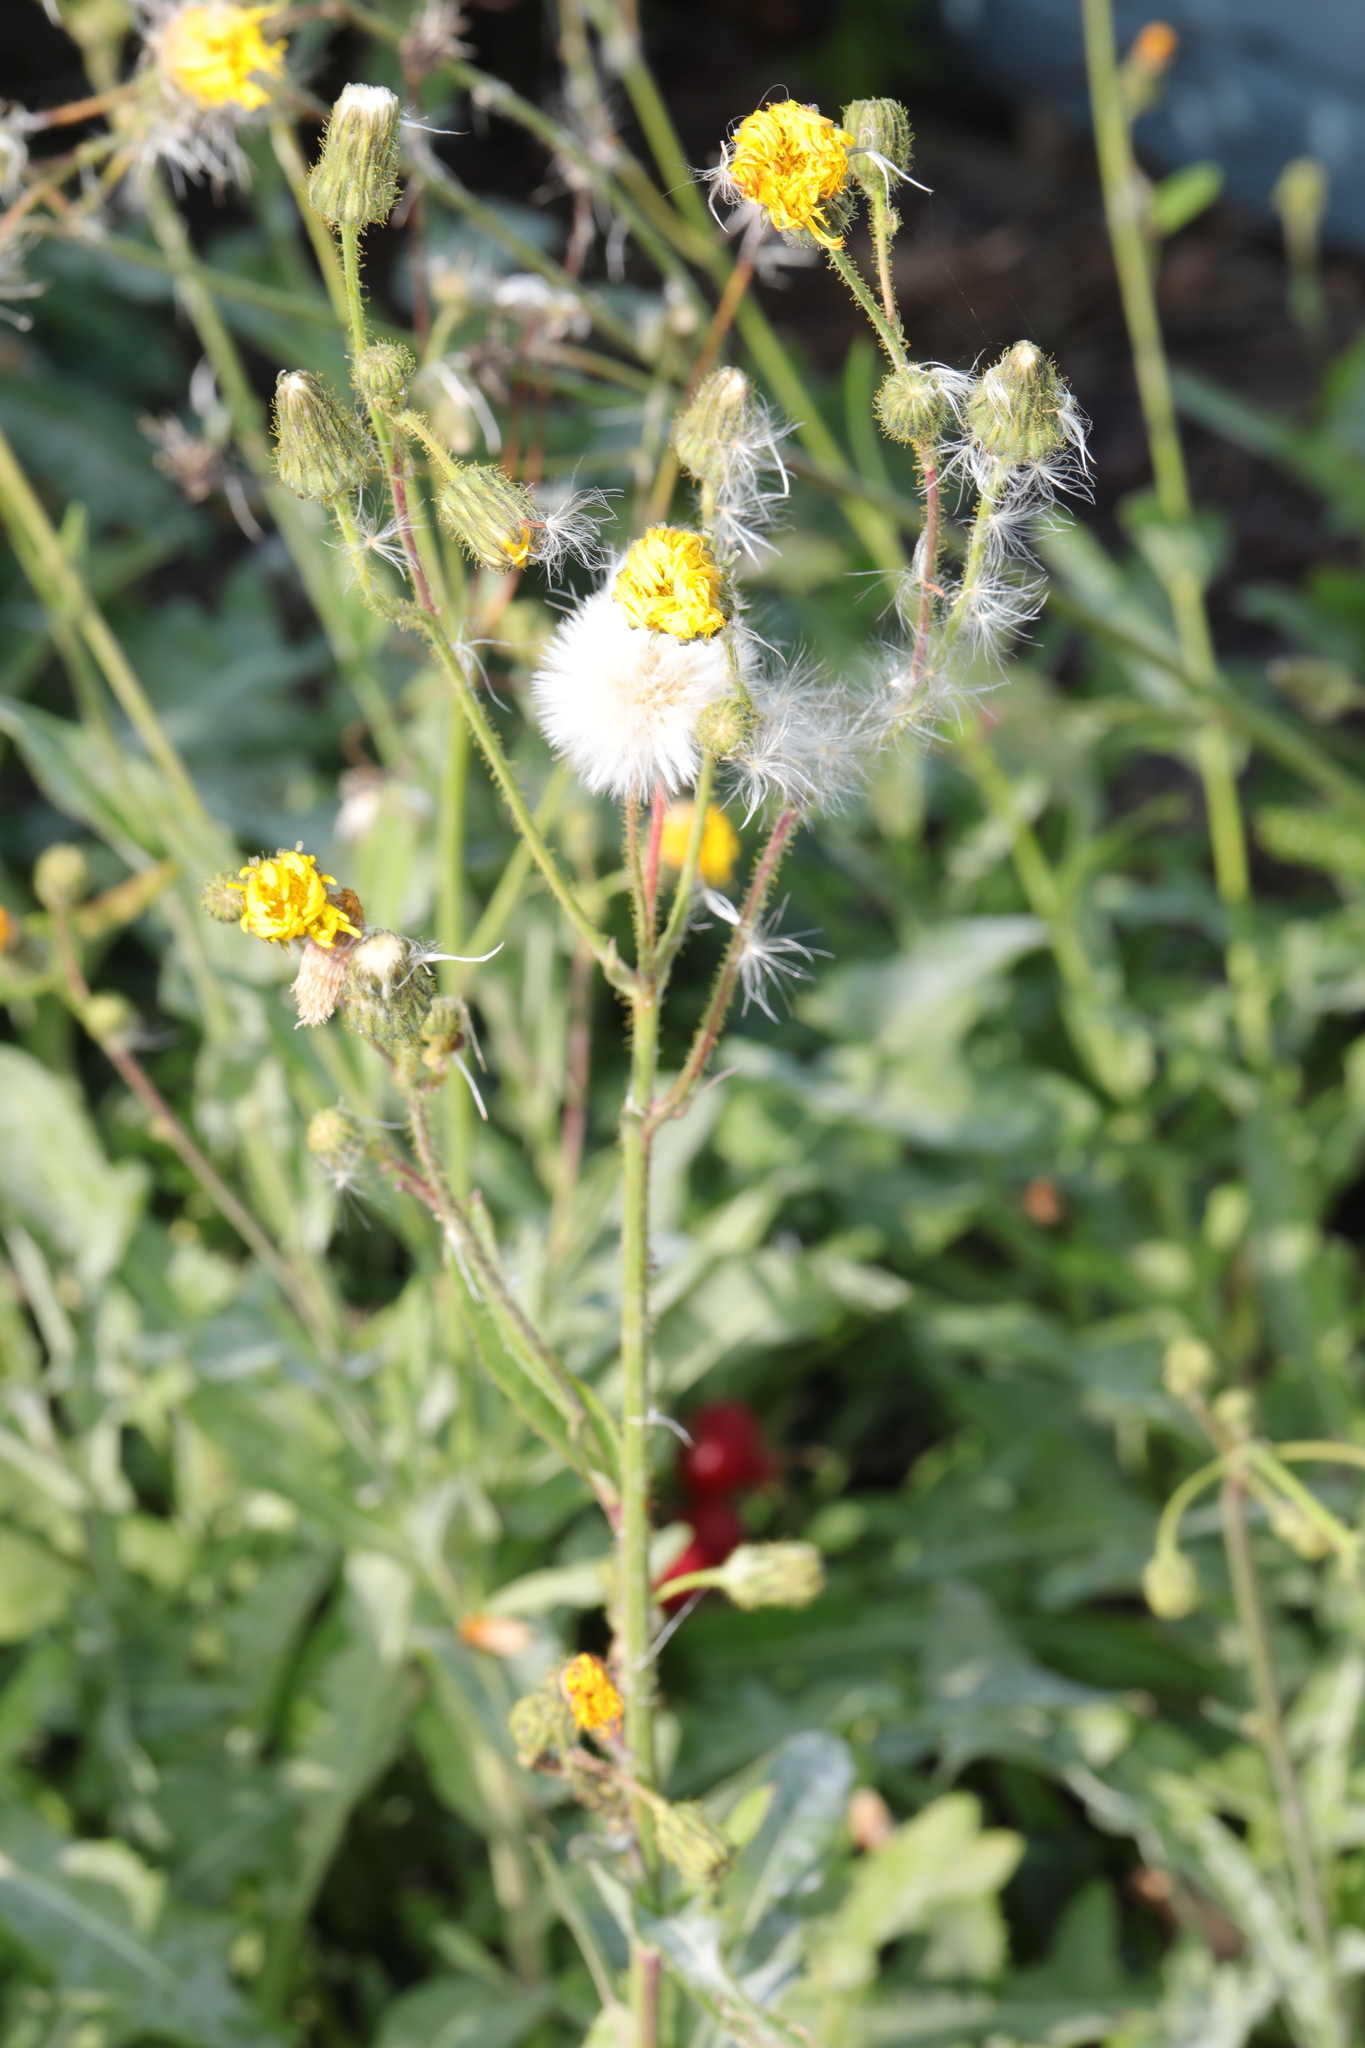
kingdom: Plantae
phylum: Tracheophyta
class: Magnoliopsida
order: Asterales
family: Asteraceae
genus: Sonchus
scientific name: Sonchus arvensis
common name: Perennial sow-thistle
